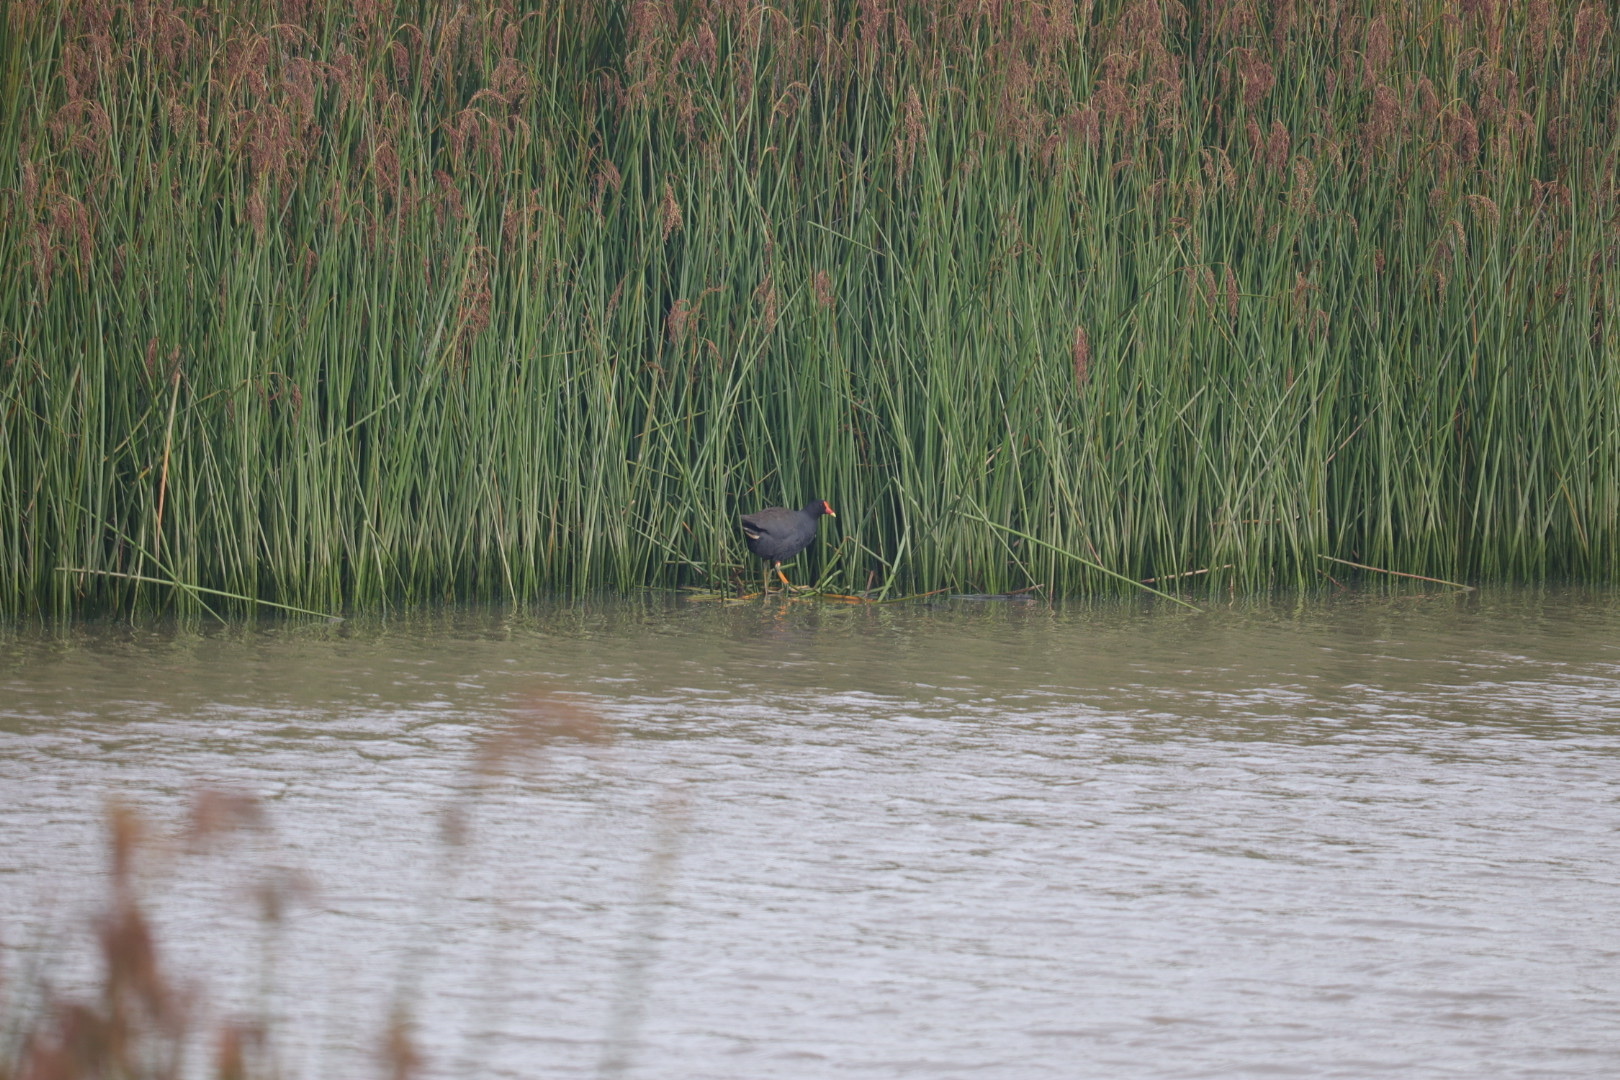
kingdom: Animalia
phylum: Chordata
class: Aves
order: Gruiformes
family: Rallidae
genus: Gallinula
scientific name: Gallinula tenebrosa
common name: Dusky moorhen
